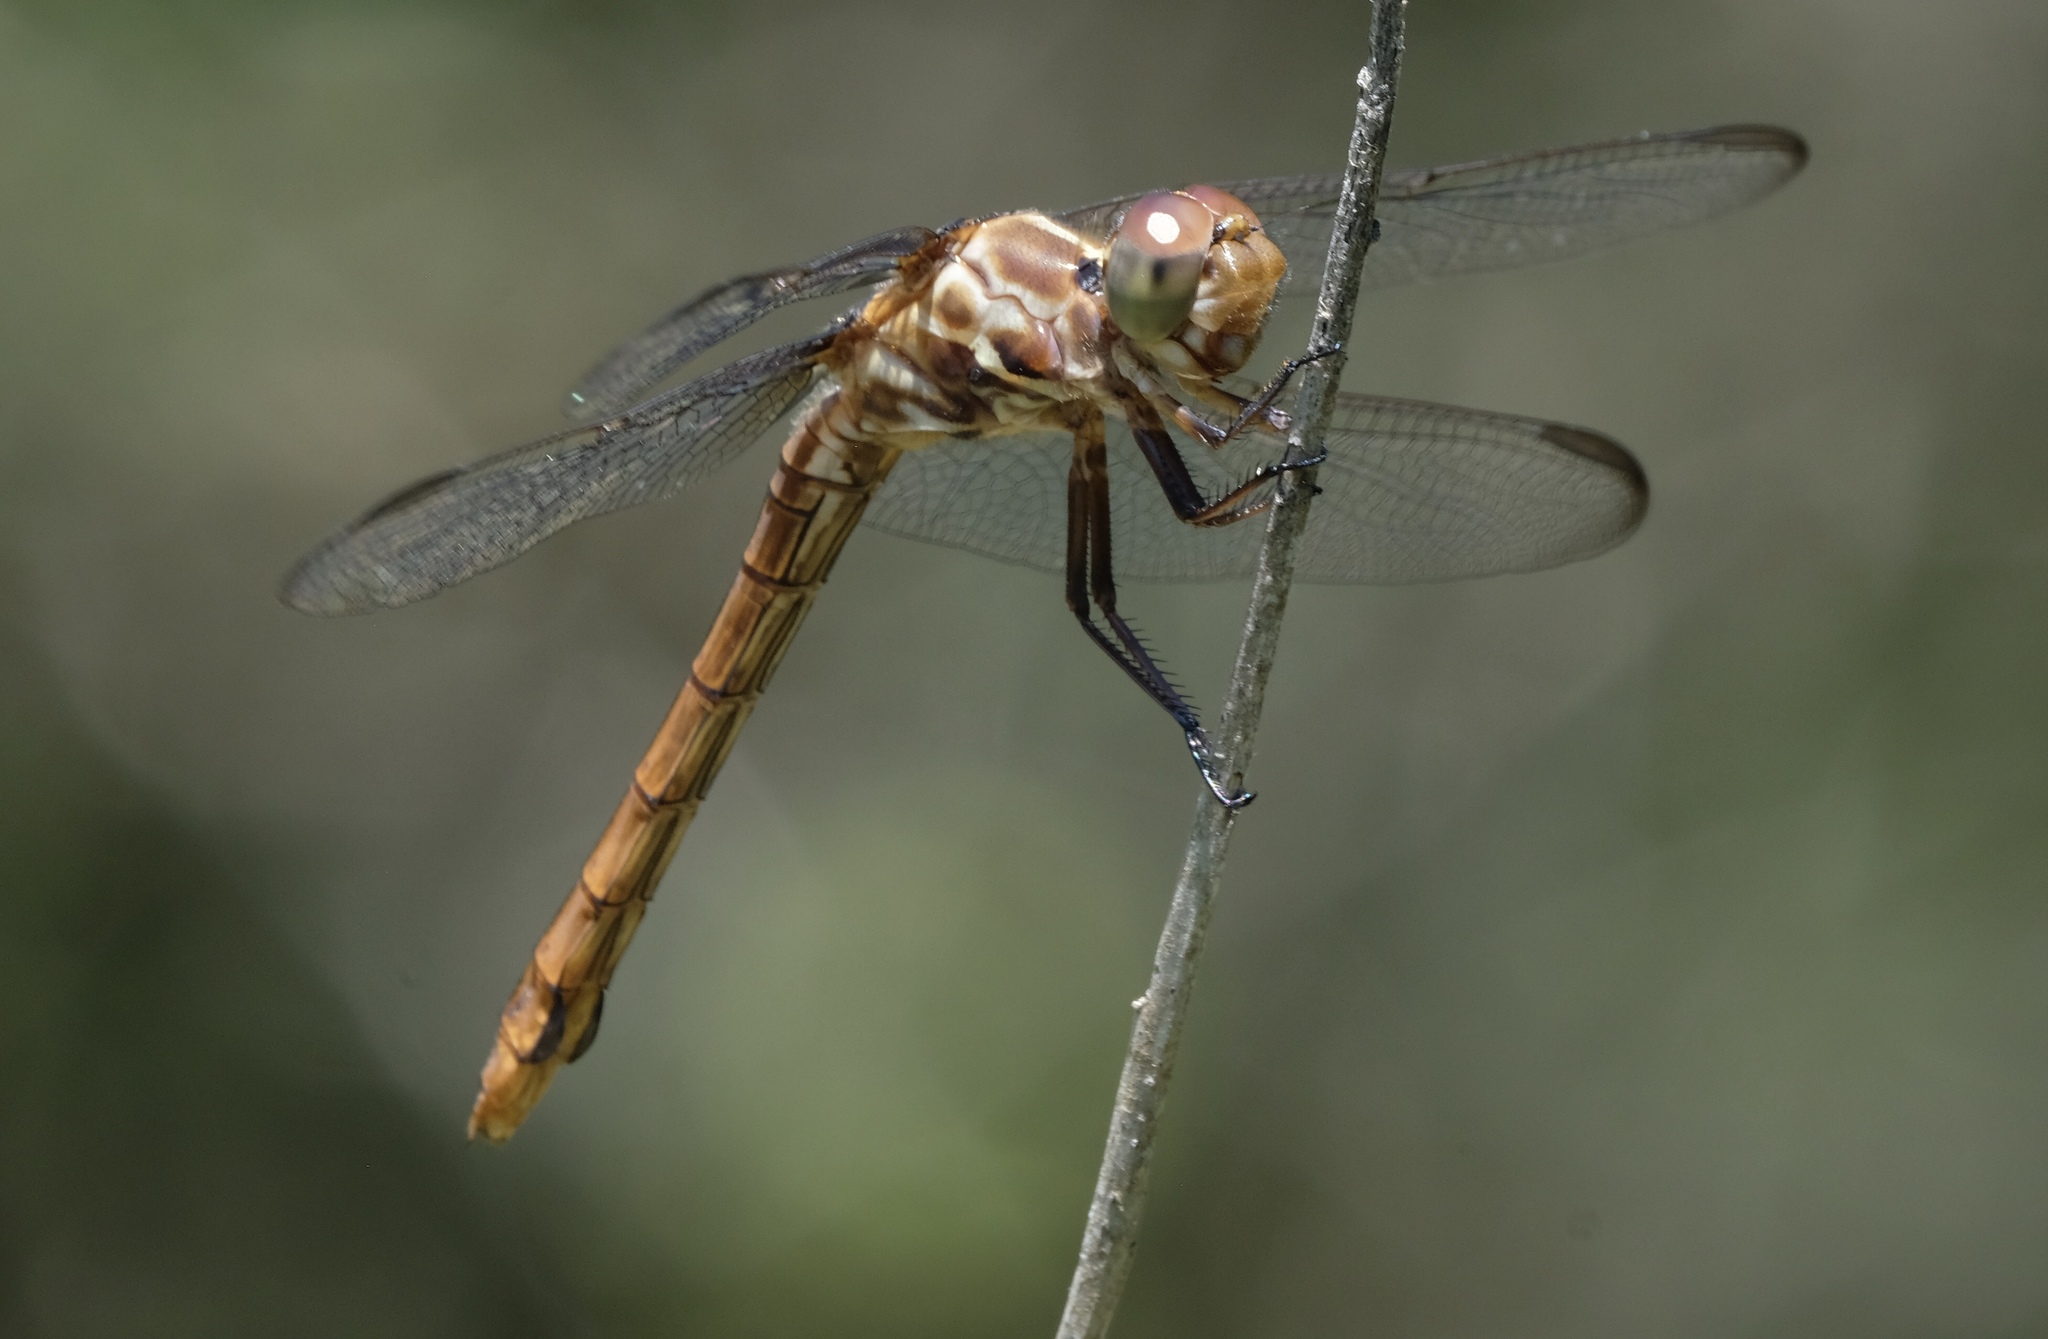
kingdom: Animalia
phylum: Arthropoda
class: Insecta
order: Odonata
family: Libellulidae
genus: Orthemis
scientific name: Orthemis ferruginea
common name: Roseate skimmer
